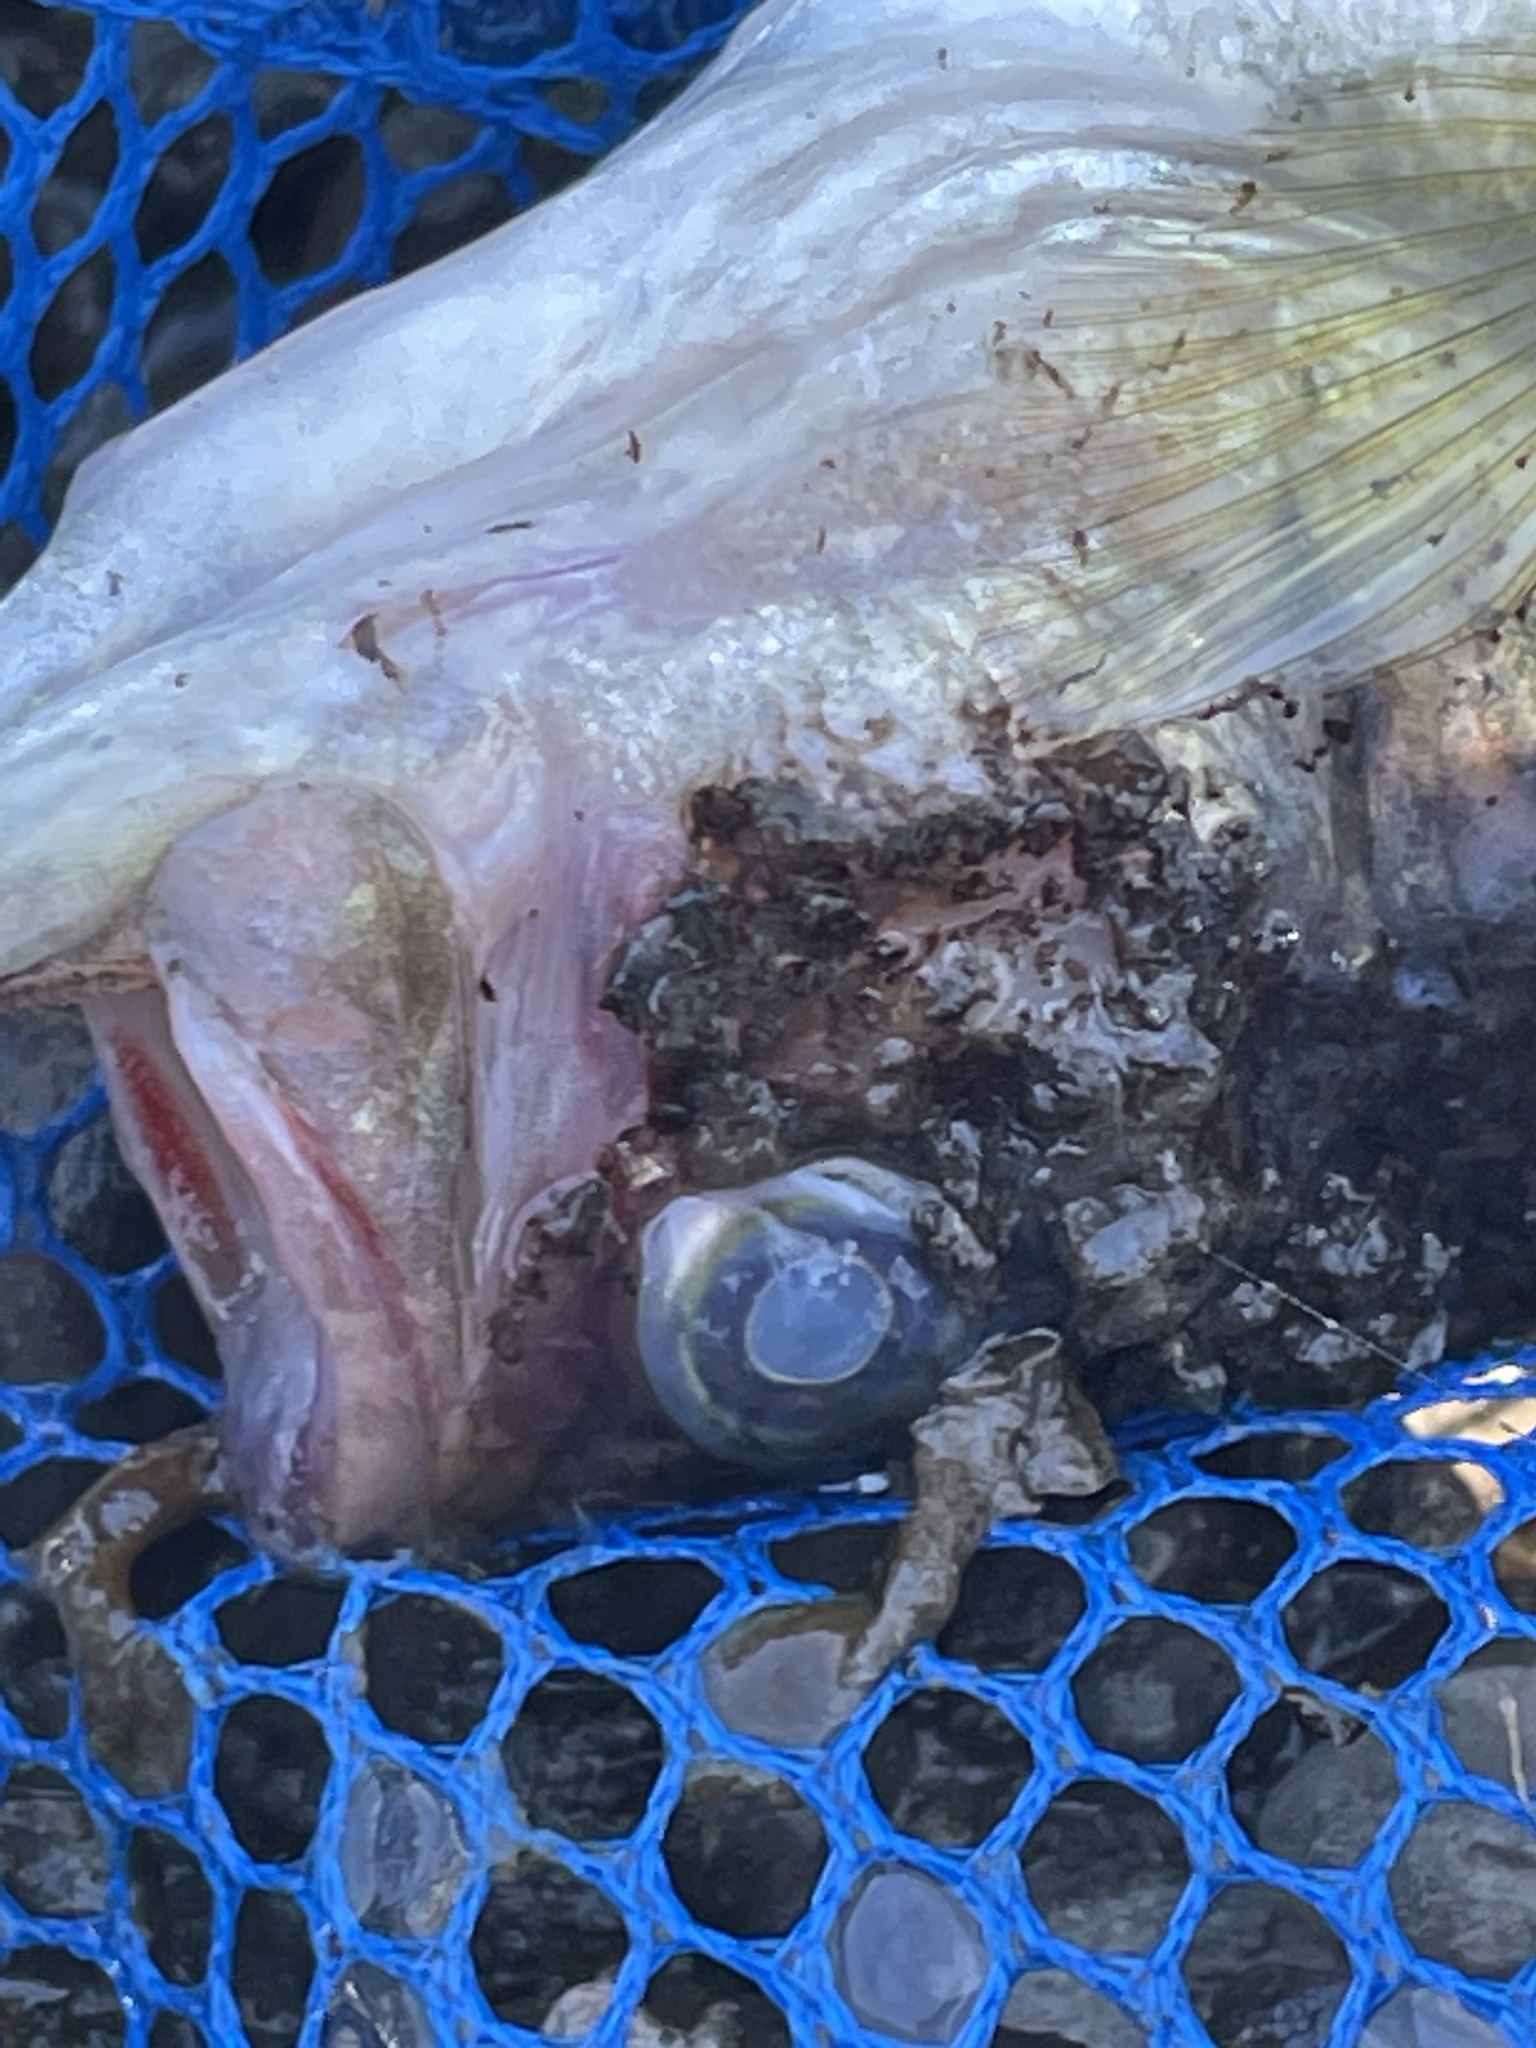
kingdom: Animalia
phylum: Chordata
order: Perciformes
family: Centrarchidae
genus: Micropterus
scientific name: Micropterus
